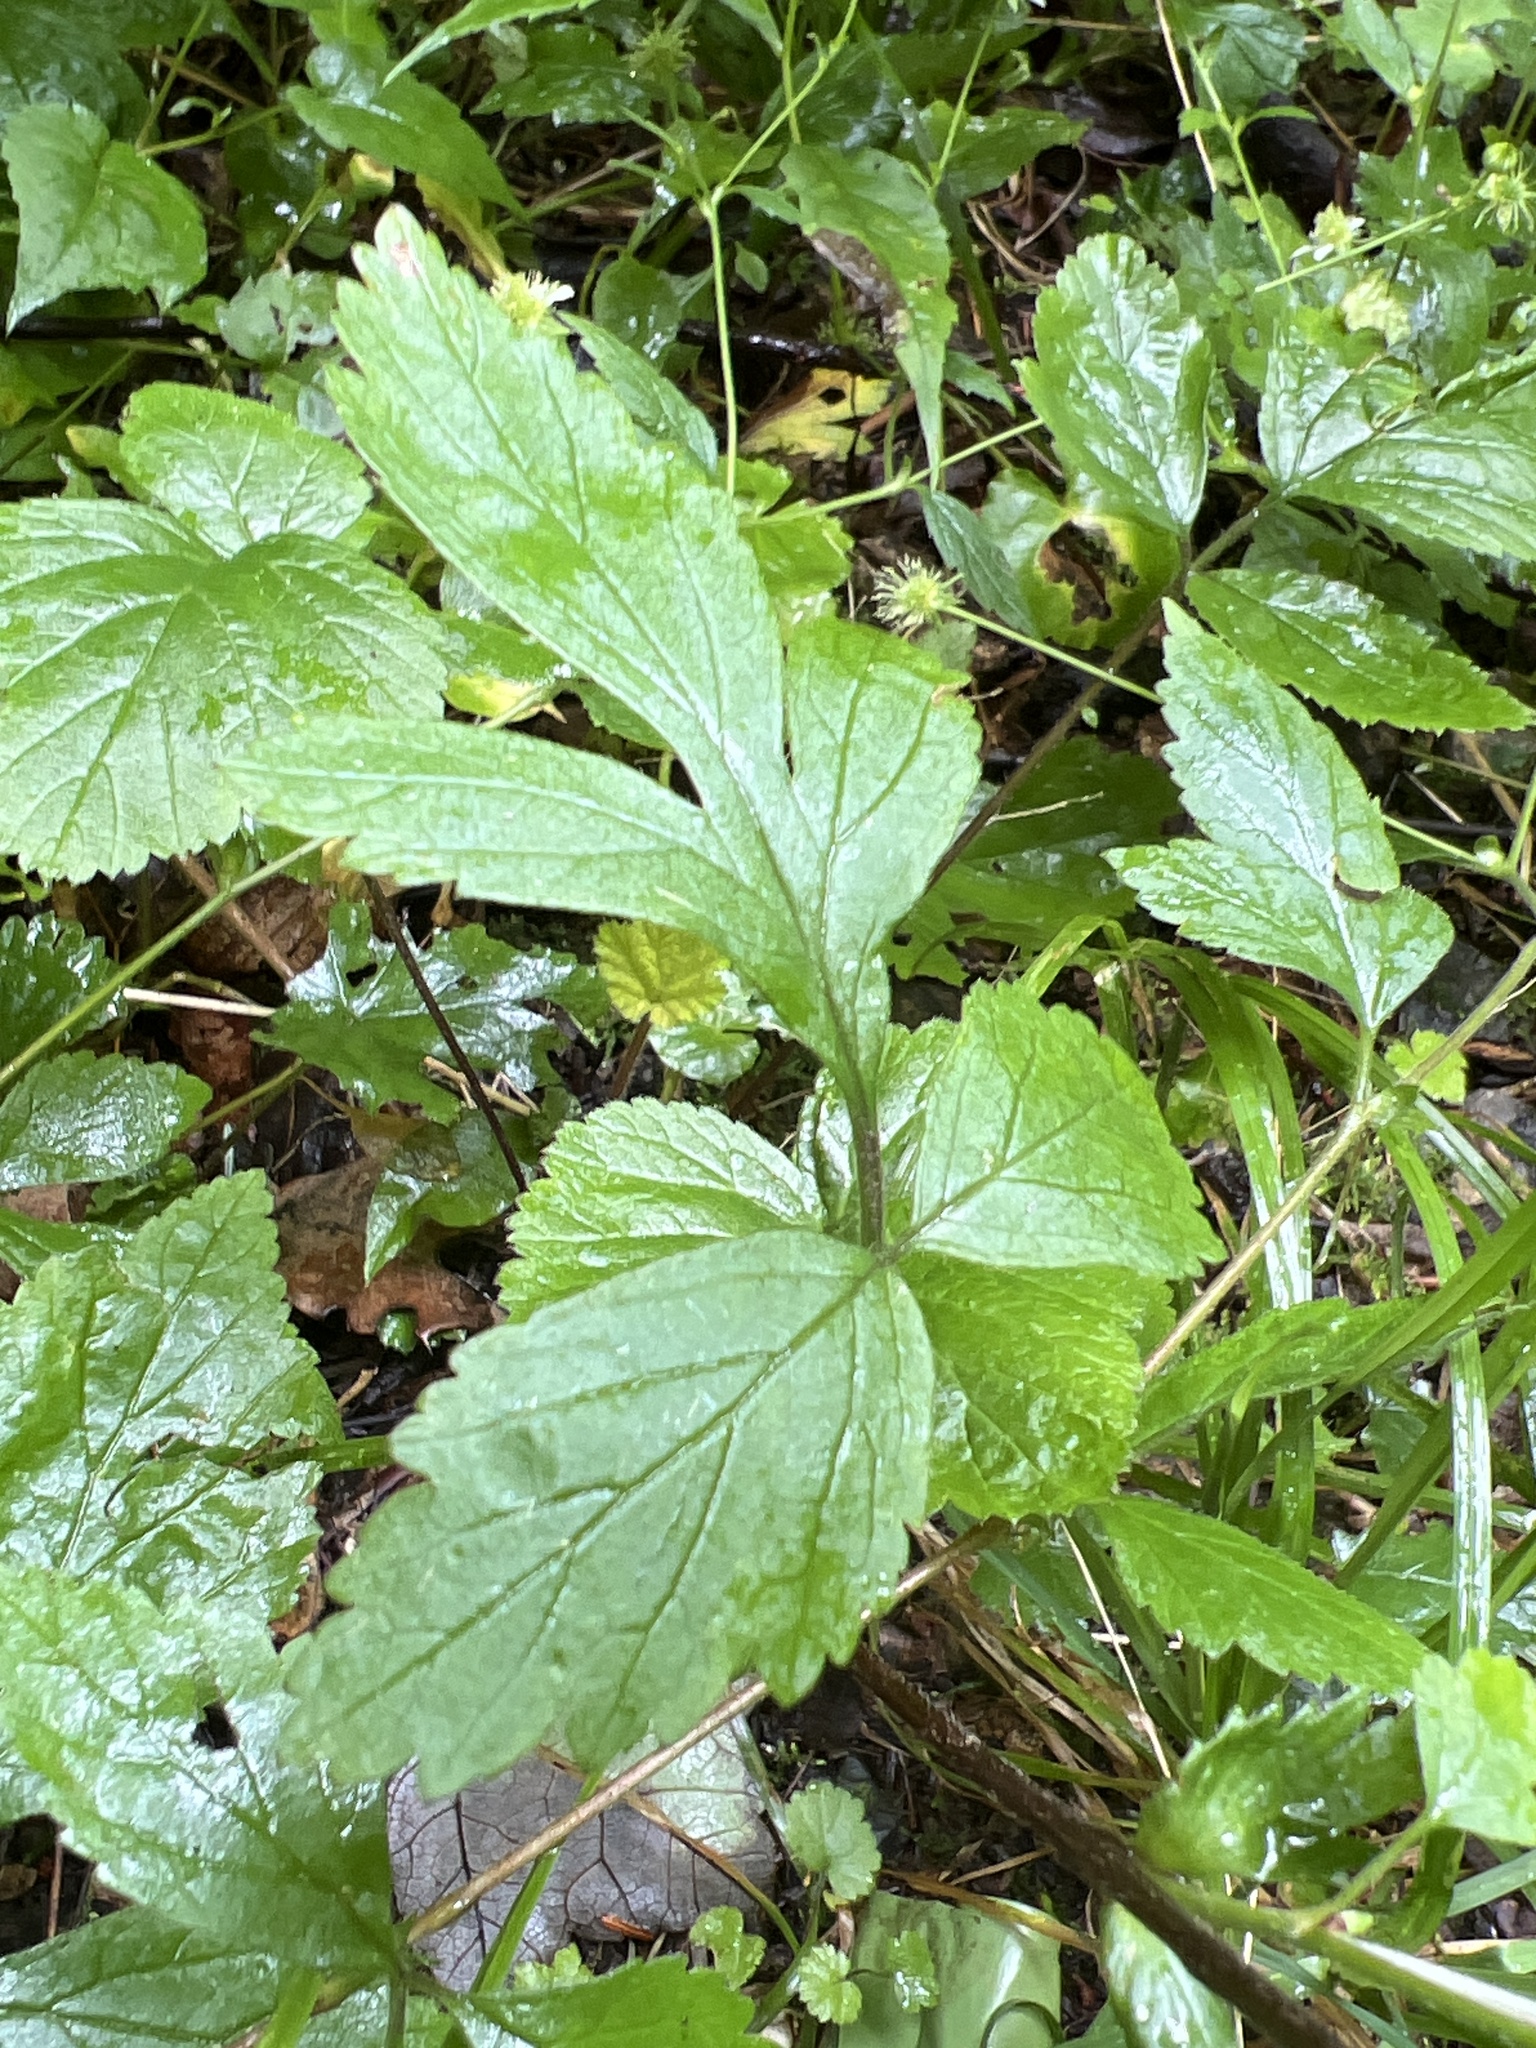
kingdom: Plantae
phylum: Tracheophyta
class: Magnoliopsida
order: Rosales
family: Rosaceae
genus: Geum
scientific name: Geum canadense
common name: White avens
